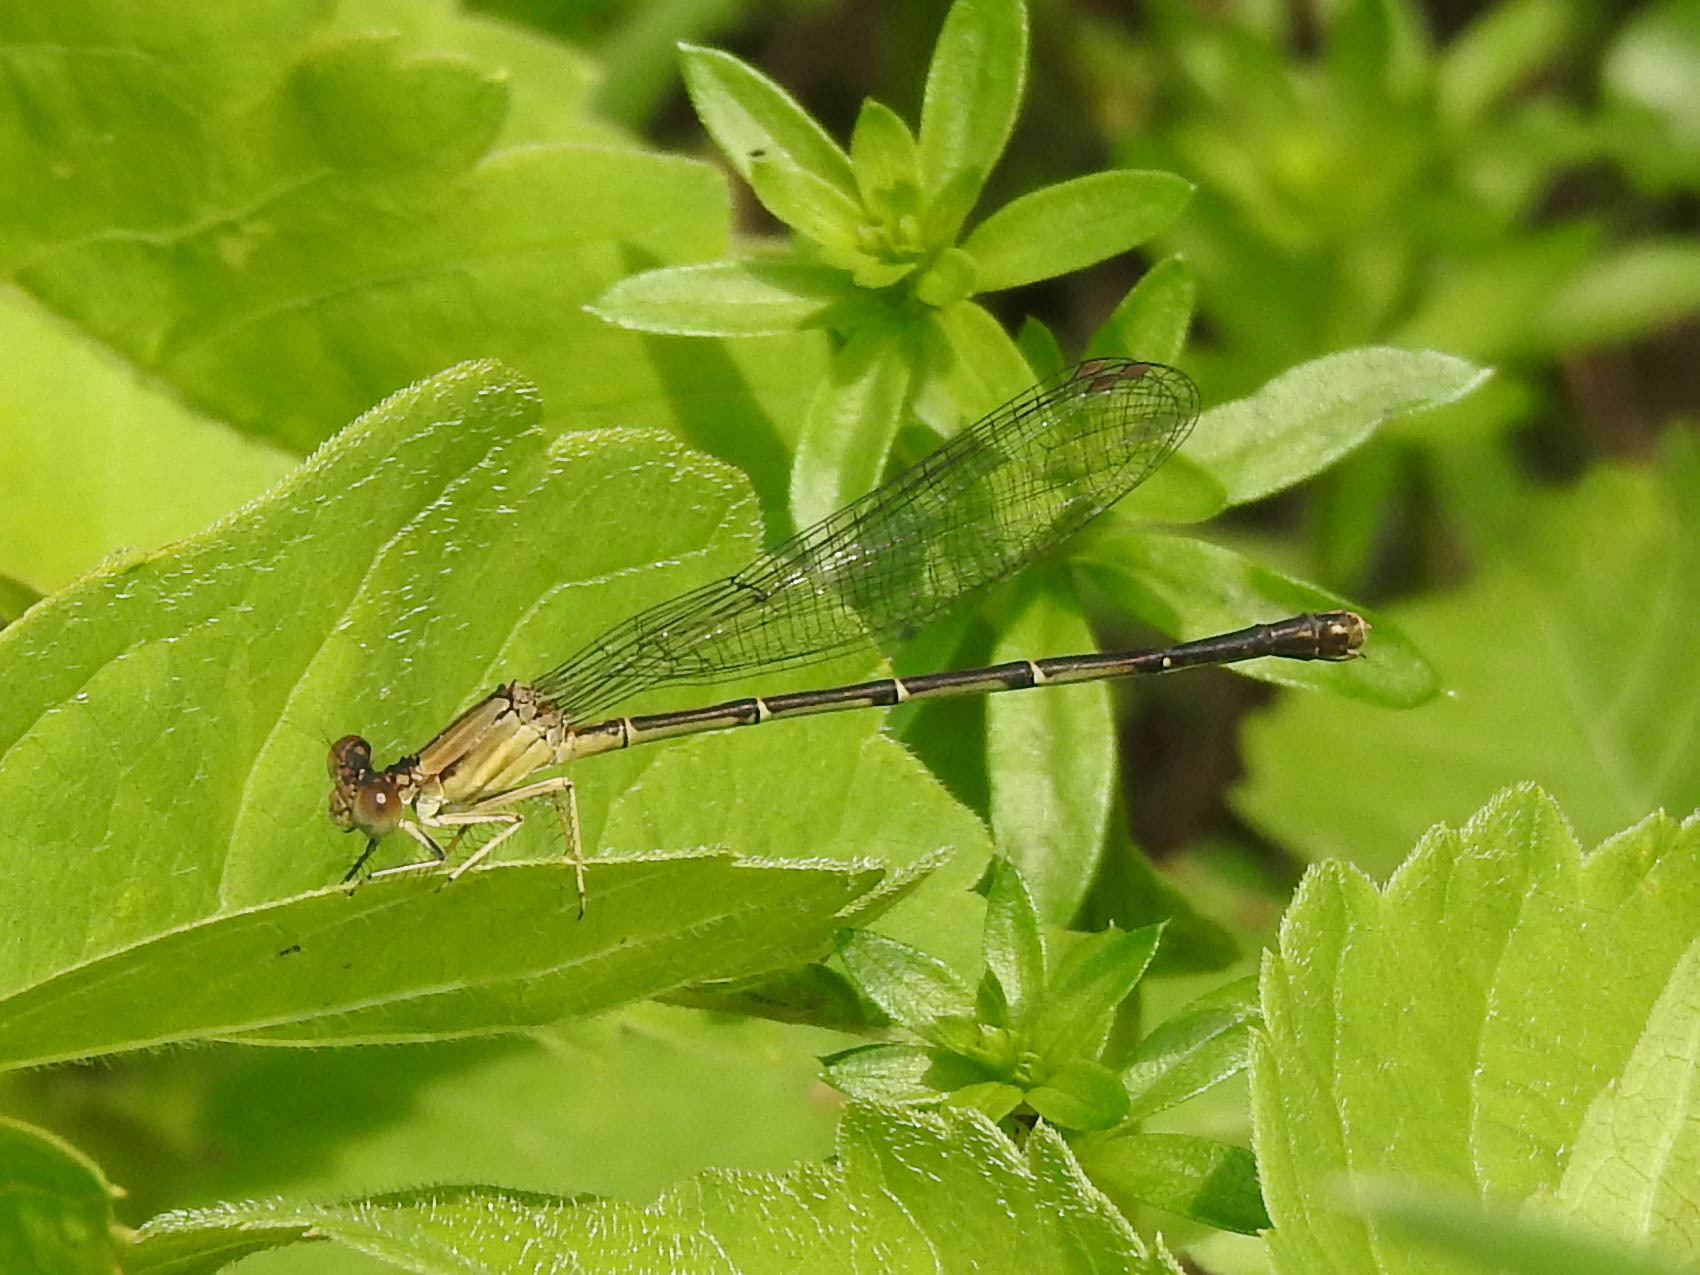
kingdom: Animalia
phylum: Arthropoda
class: Insecta
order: Odonata
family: Coenagrionidae
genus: Argia
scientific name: Argia apicalis
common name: Blue-fronted dancer
